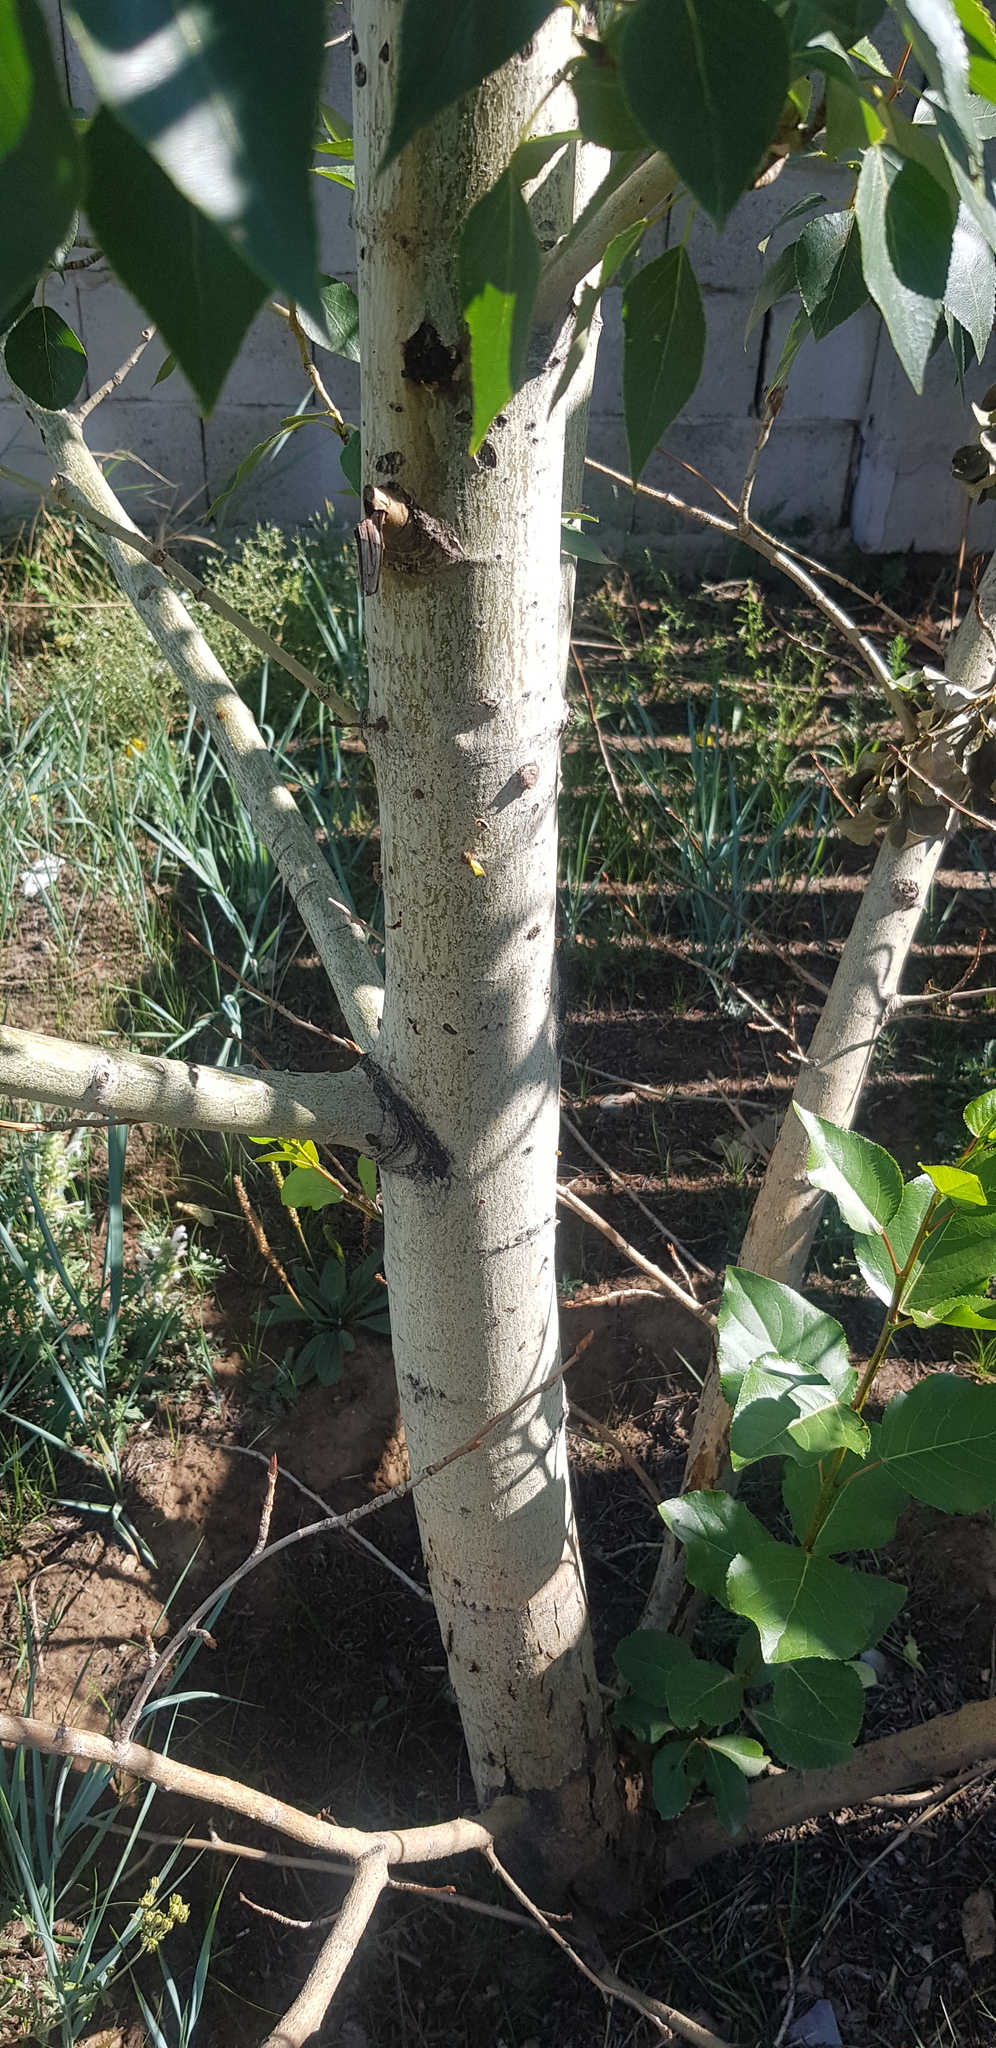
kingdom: Plantae
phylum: Tracheophyta
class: Magnoliopsida
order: Malpighiales
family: Salicaceae
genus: Populus
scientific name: Populus suaveolens
